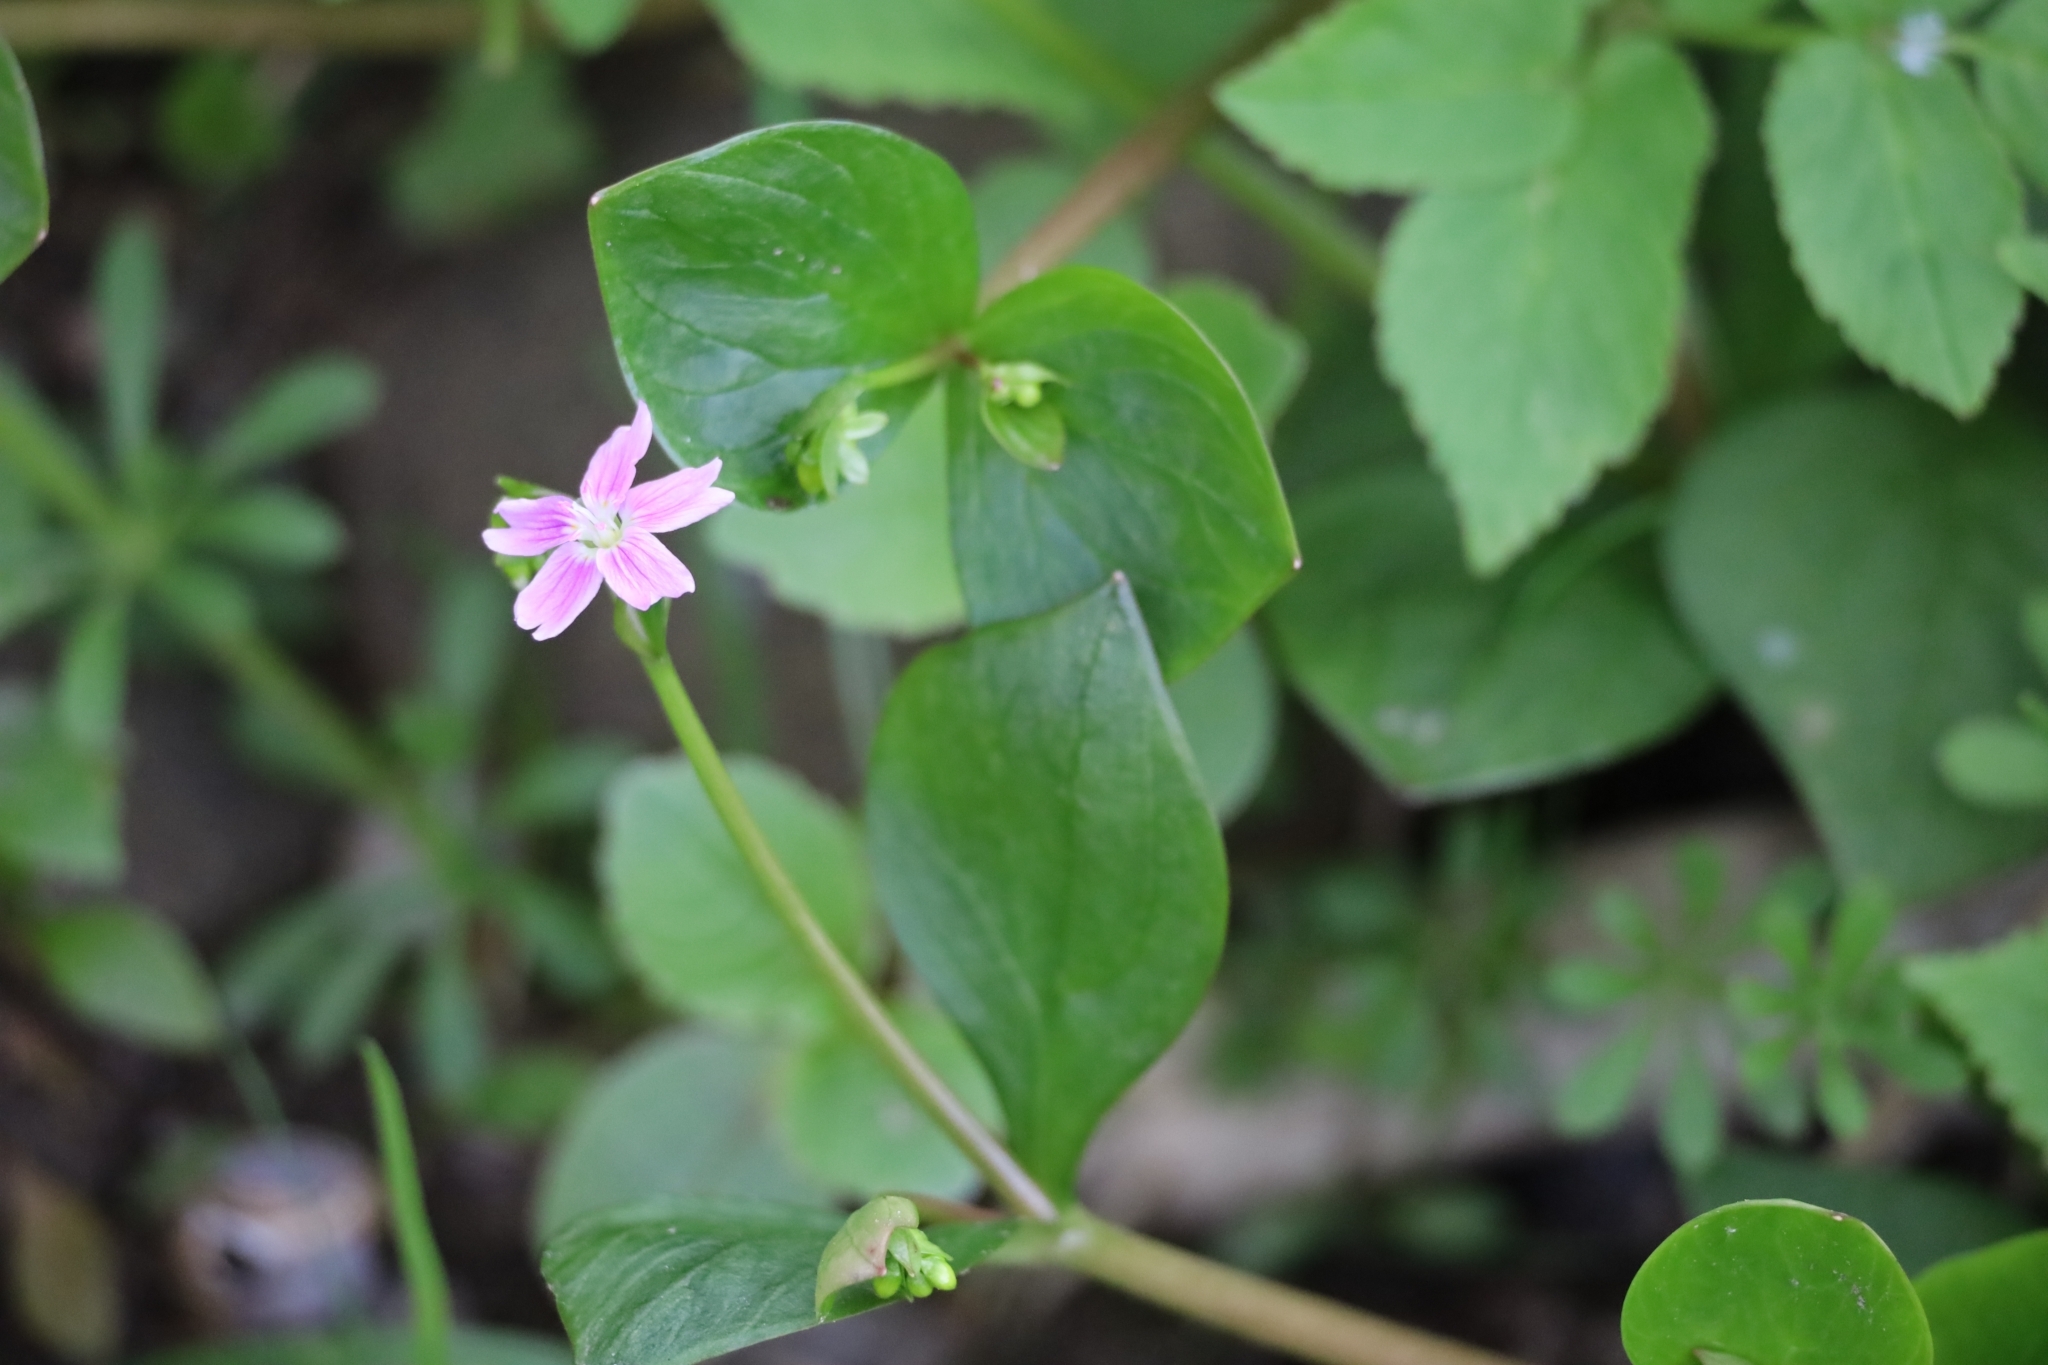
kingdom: Plantae
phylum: Tracheophyta
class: Magnoliopsida
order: Caryophyllales
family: Montiaceae
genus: Claytonia
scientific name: Claytonia sibirica
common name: Pink purslane
